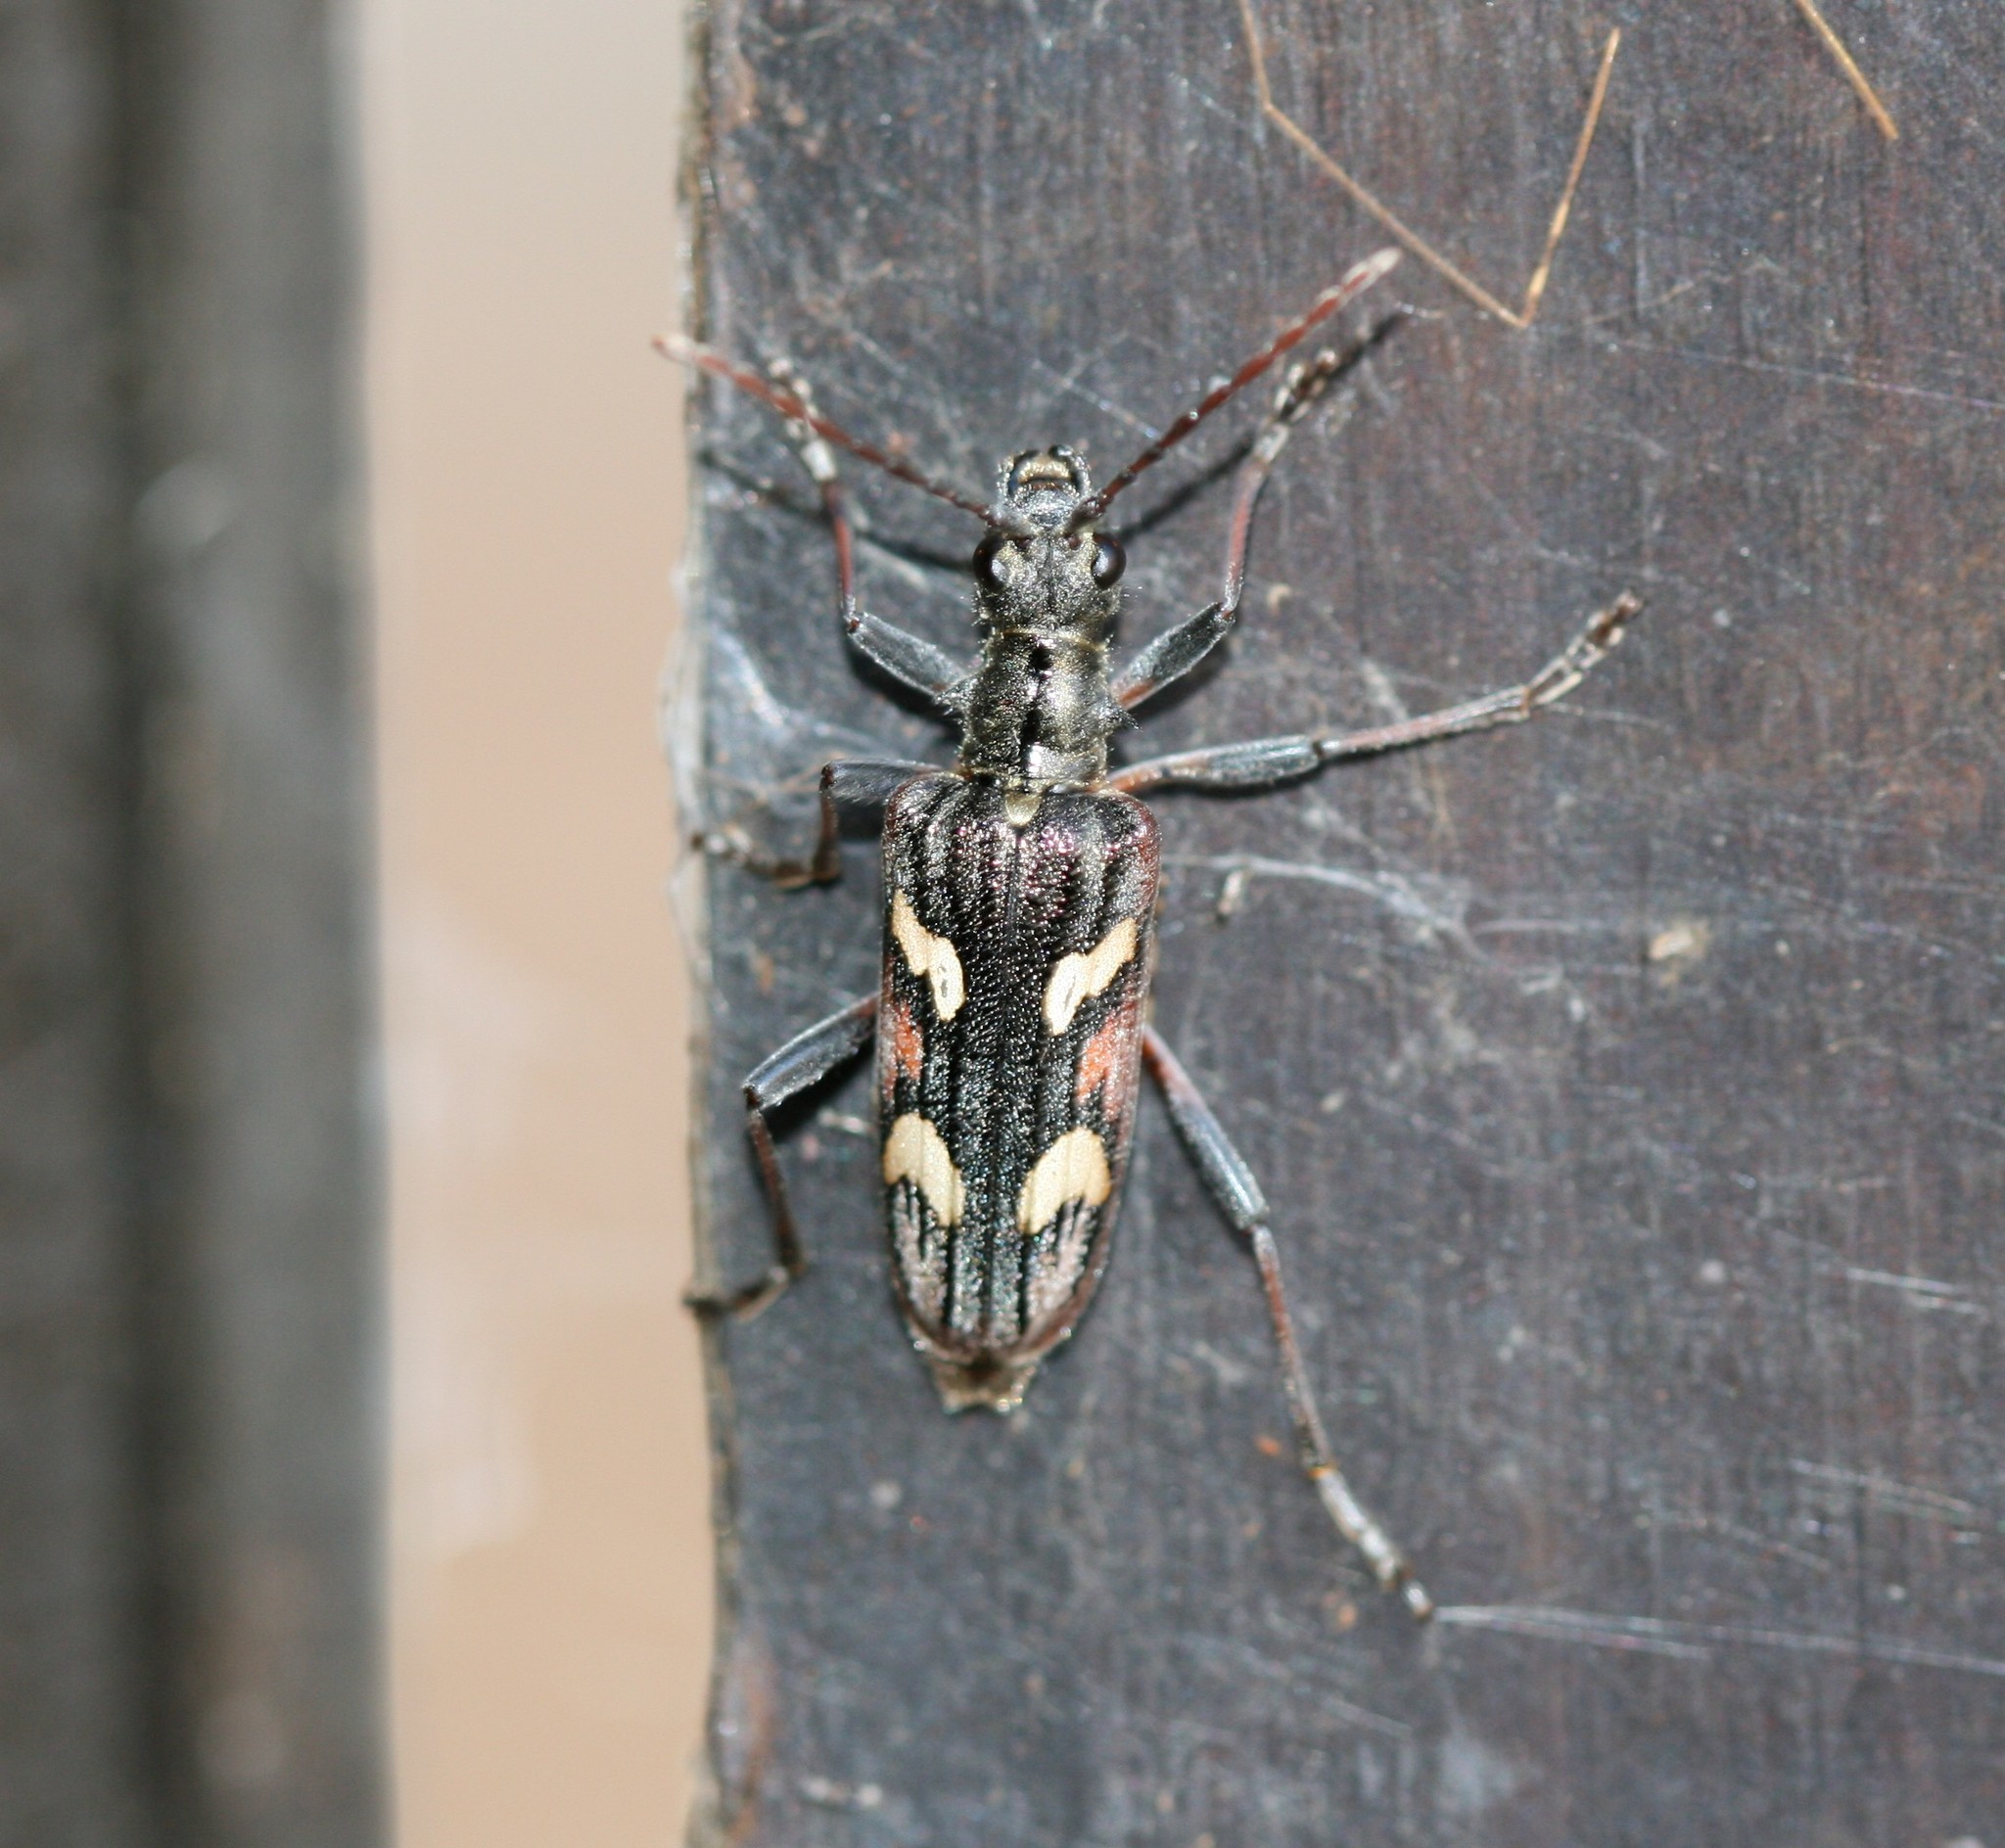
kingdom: Animalia
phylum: Arthropoda
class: Insecta
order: Coleoptera
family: Cerambycidae
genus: Rhagium
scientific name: Rhagium bifasciatum
